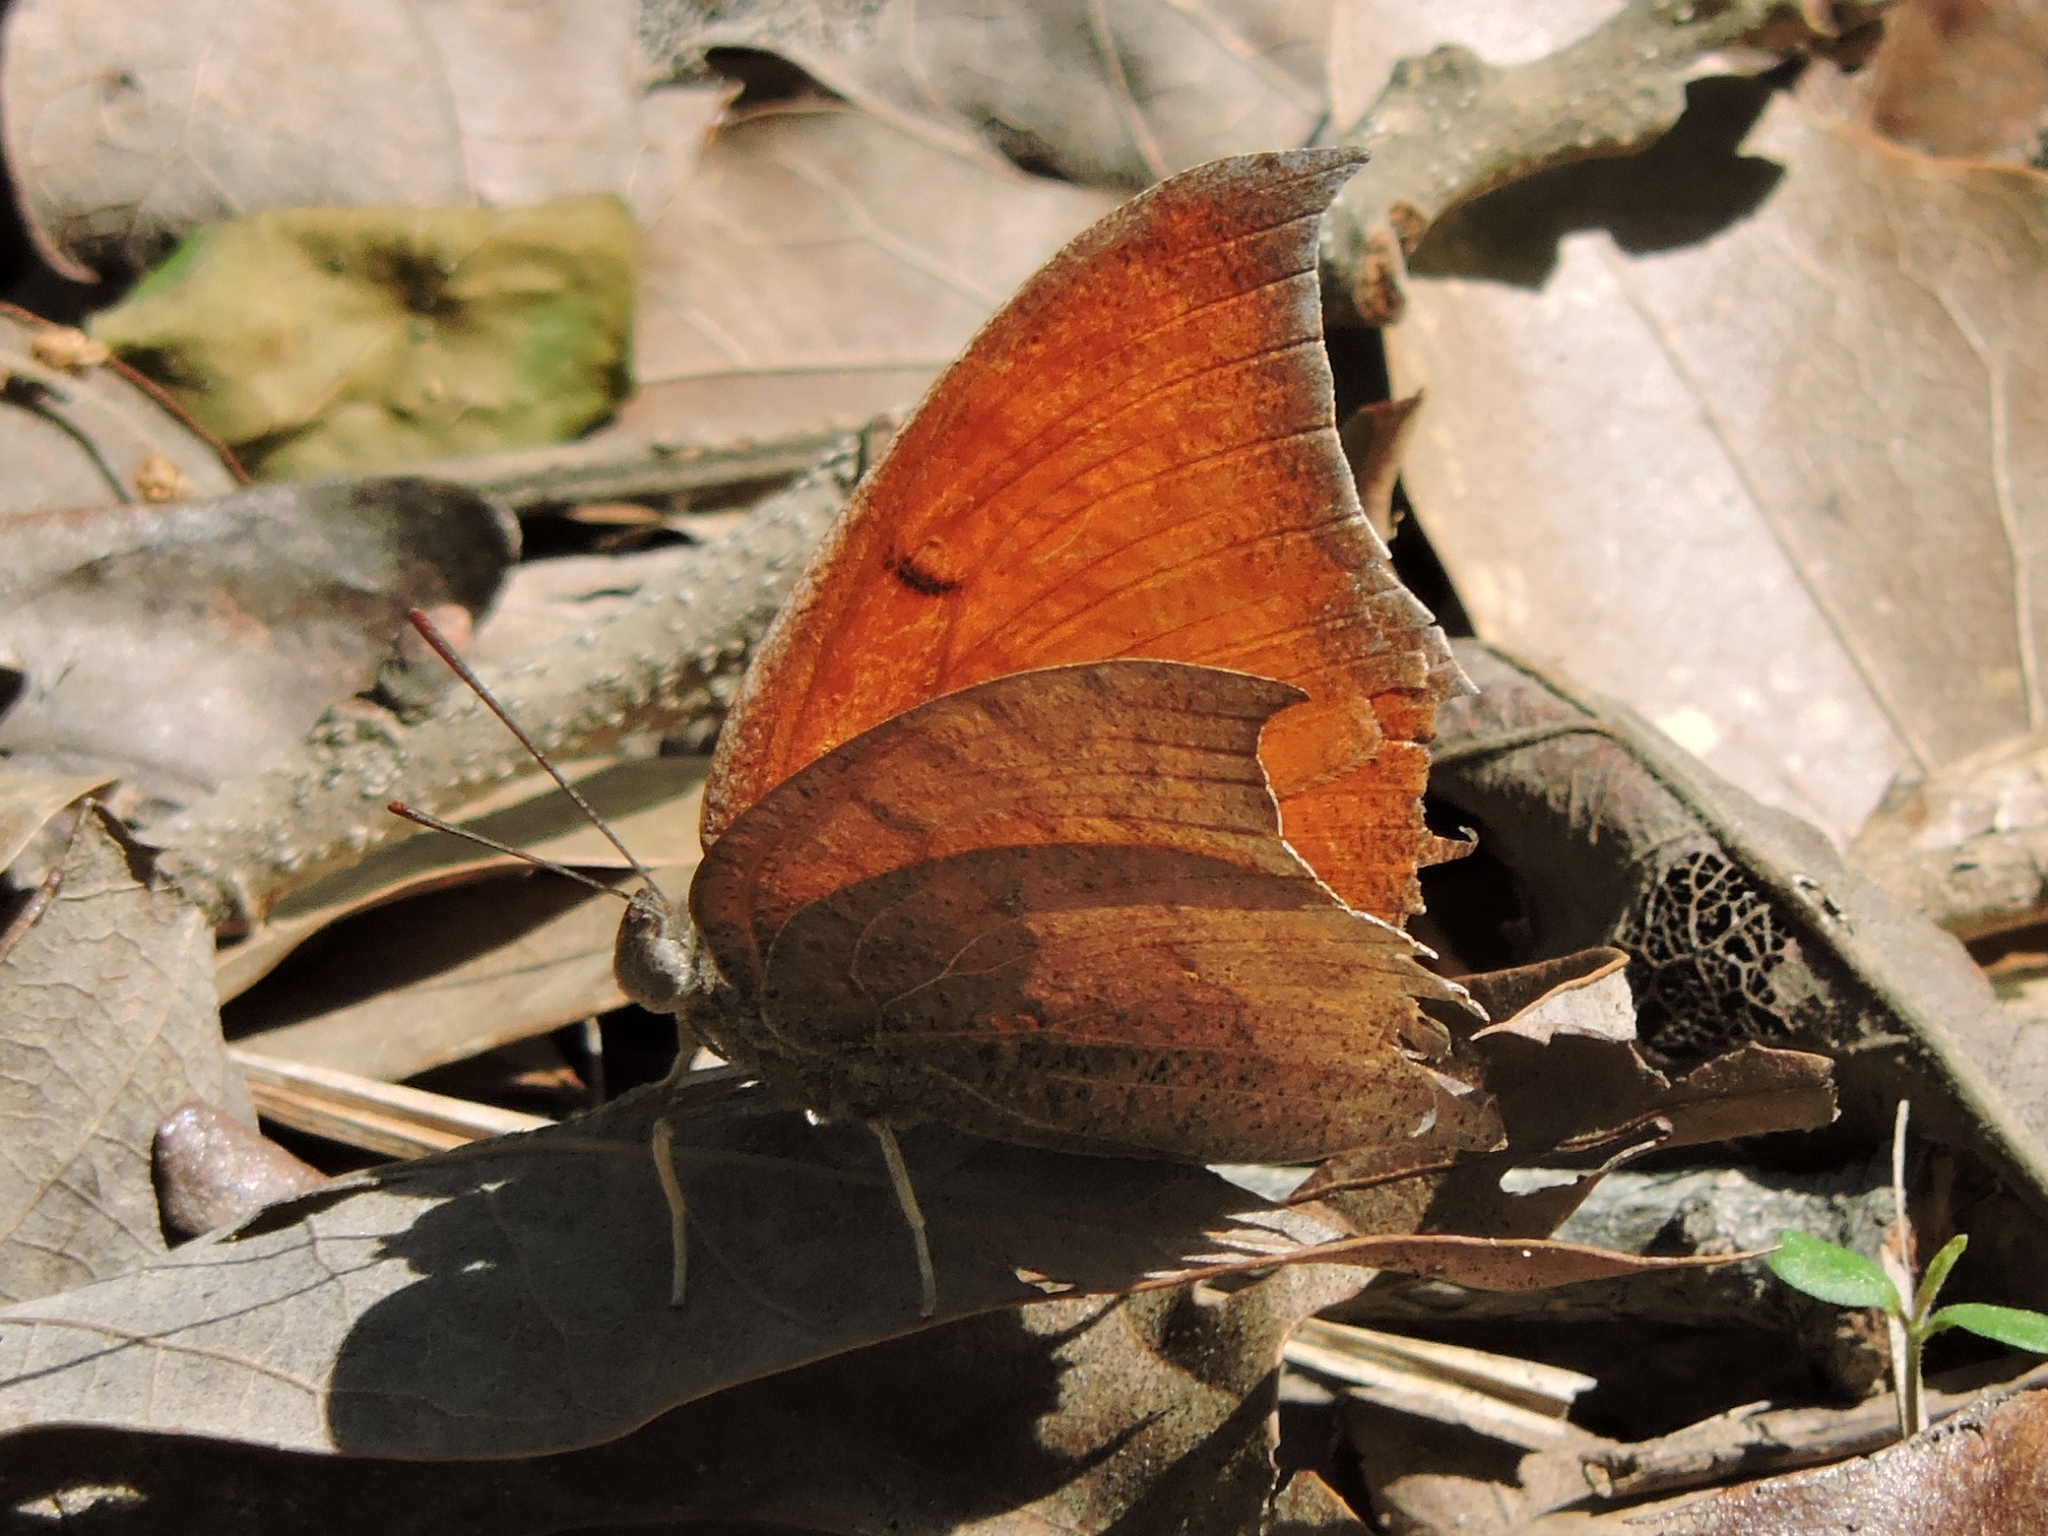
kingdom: Animalia
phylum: Arthropoda
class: Insecta
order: Lepidoptera
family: Nymphalidae
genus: Anaea
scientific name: Anaea andria
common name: Goatweed leafwing
